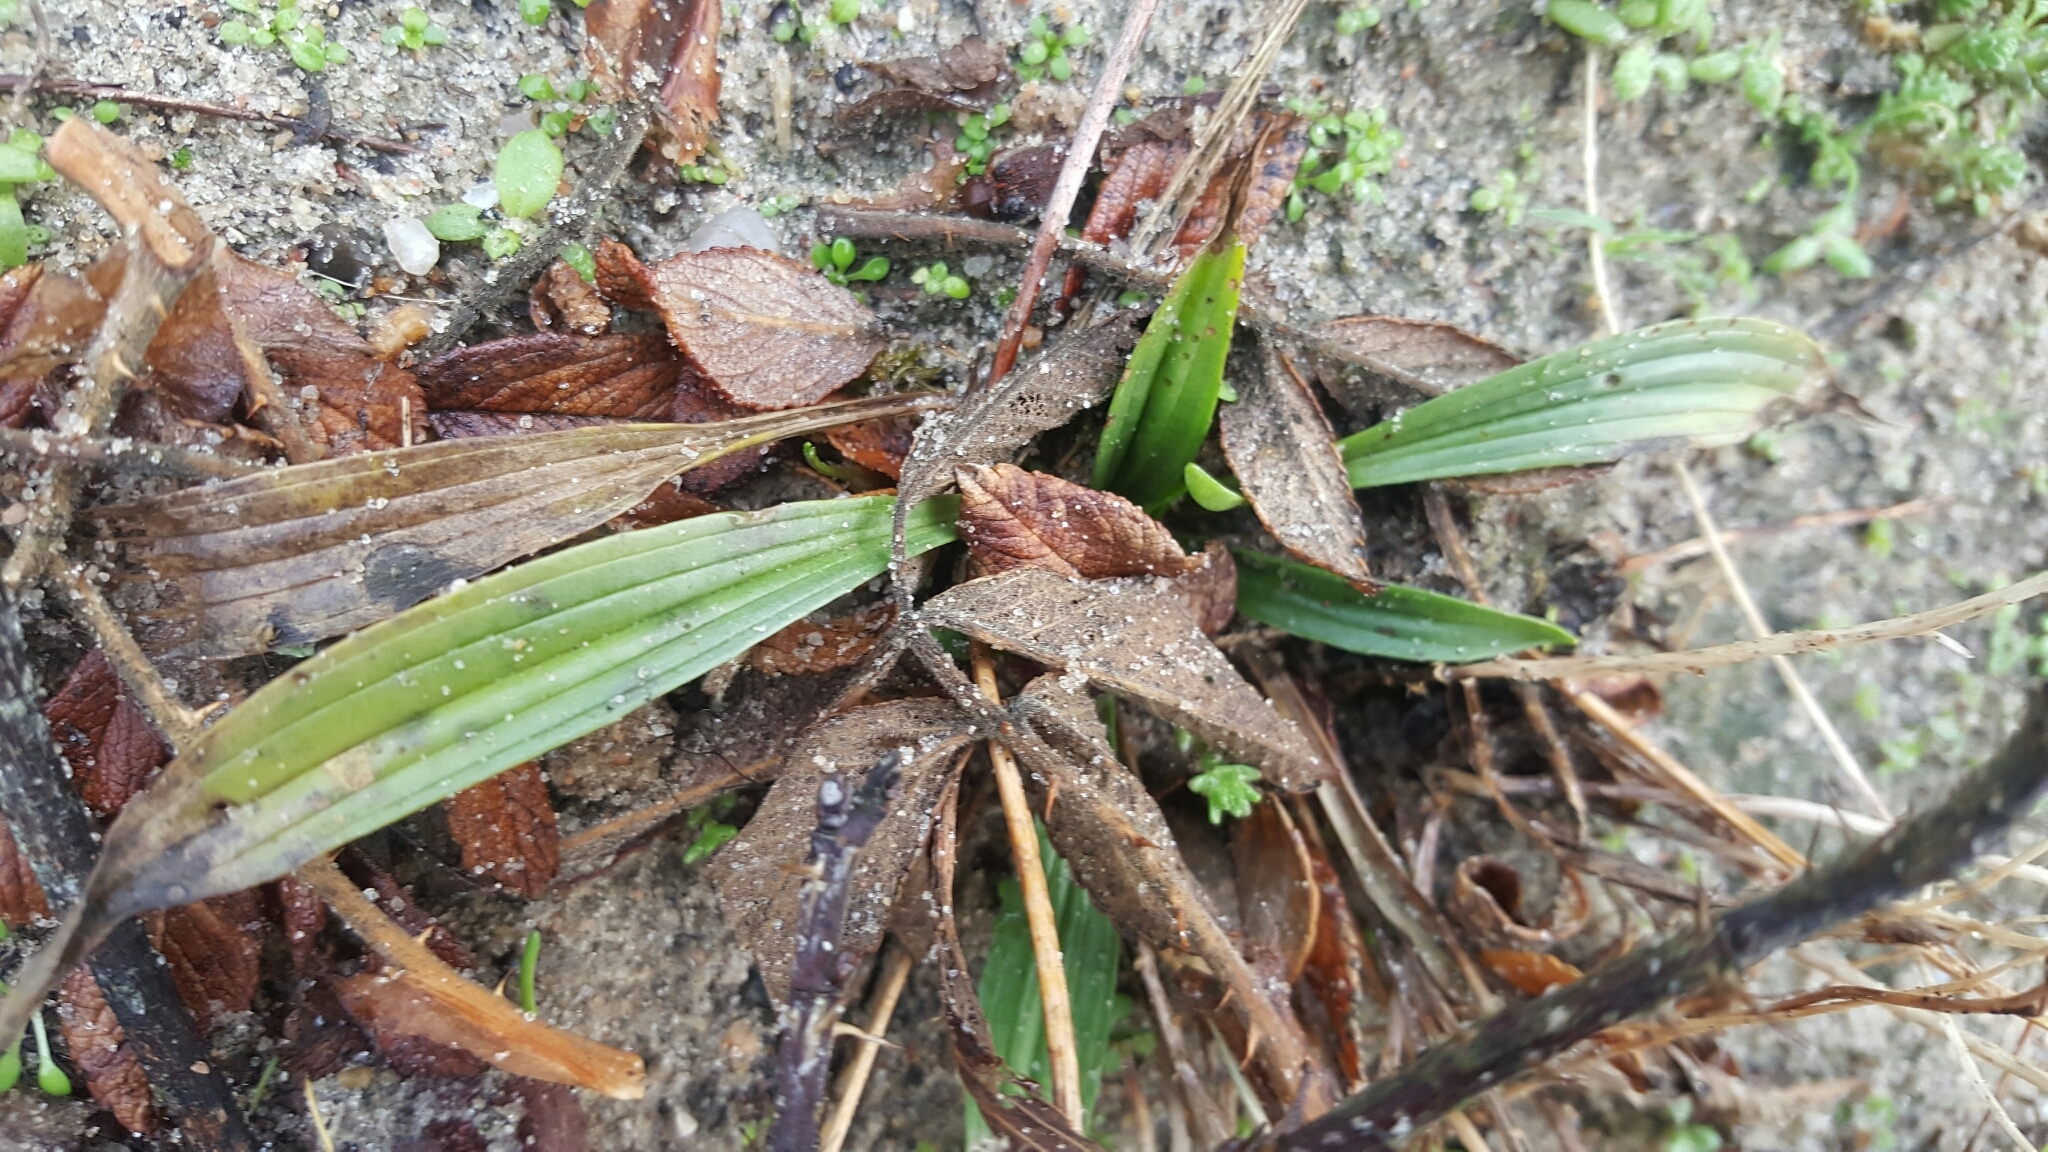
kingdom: Plantae
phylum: Tracheophyta
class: Magnoliopsida
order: Lamiales
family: Plantaginaceae
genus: Plantago
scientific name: Plantago lanceolata
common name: Ribwort plantain
